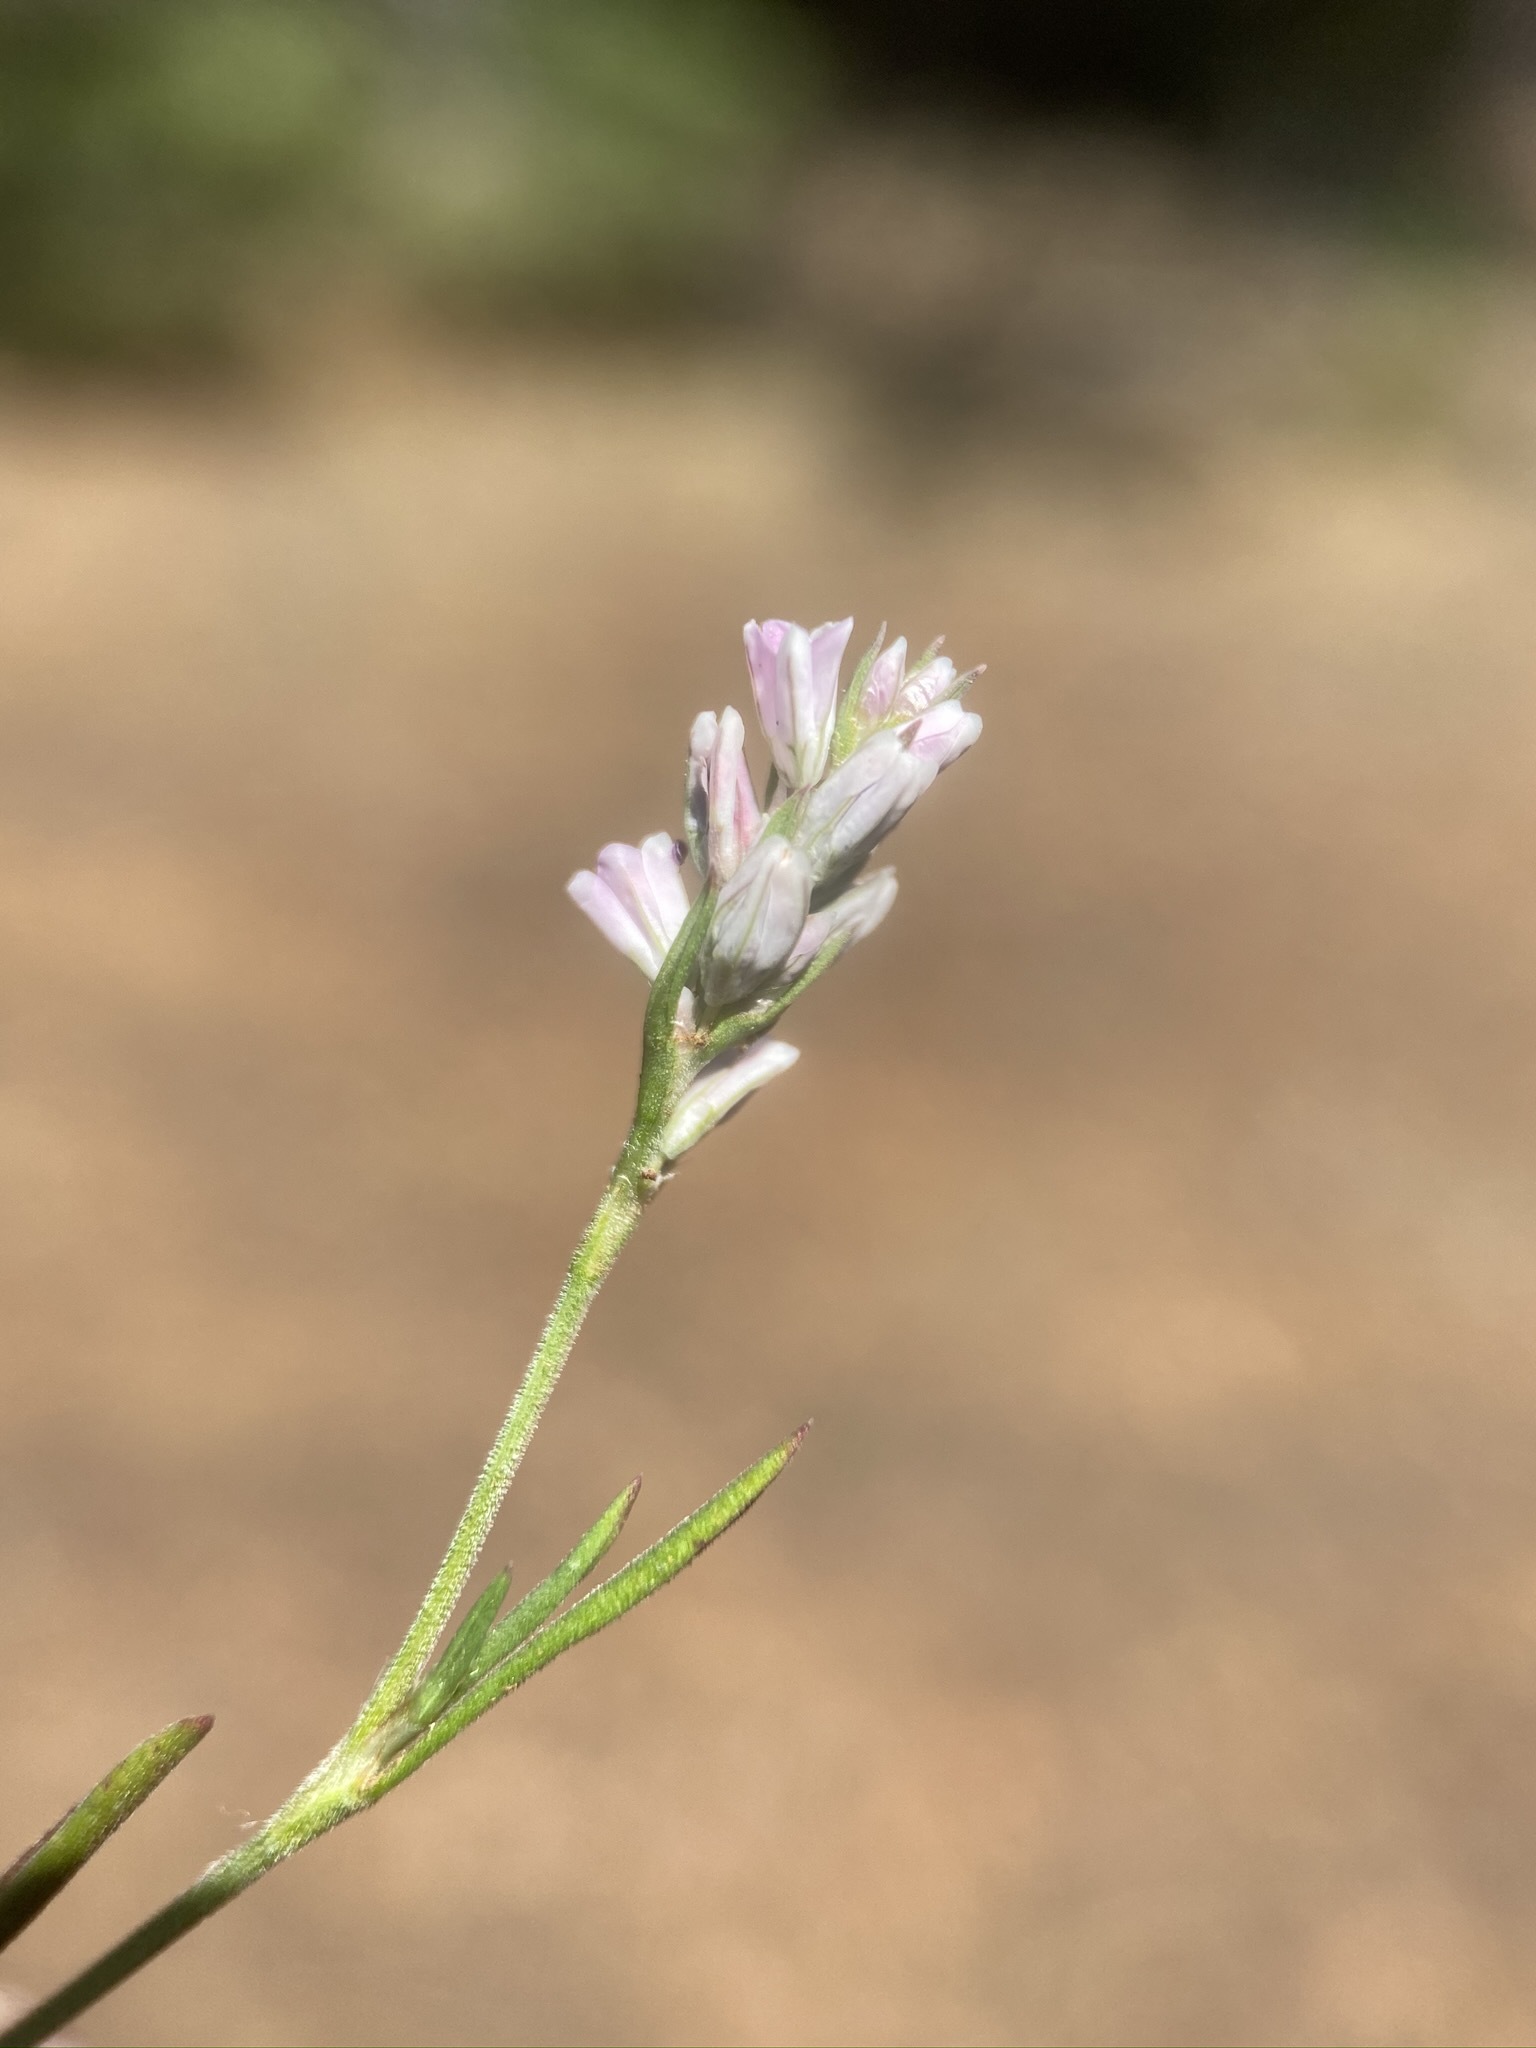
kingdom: Plantae
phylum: Tracheophyta
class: Magnoliopsida
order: Caryophyllales
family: Polygonaceae
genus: Polygonum
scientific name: Polygonum spergulariiforme
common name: Fall knotweed
